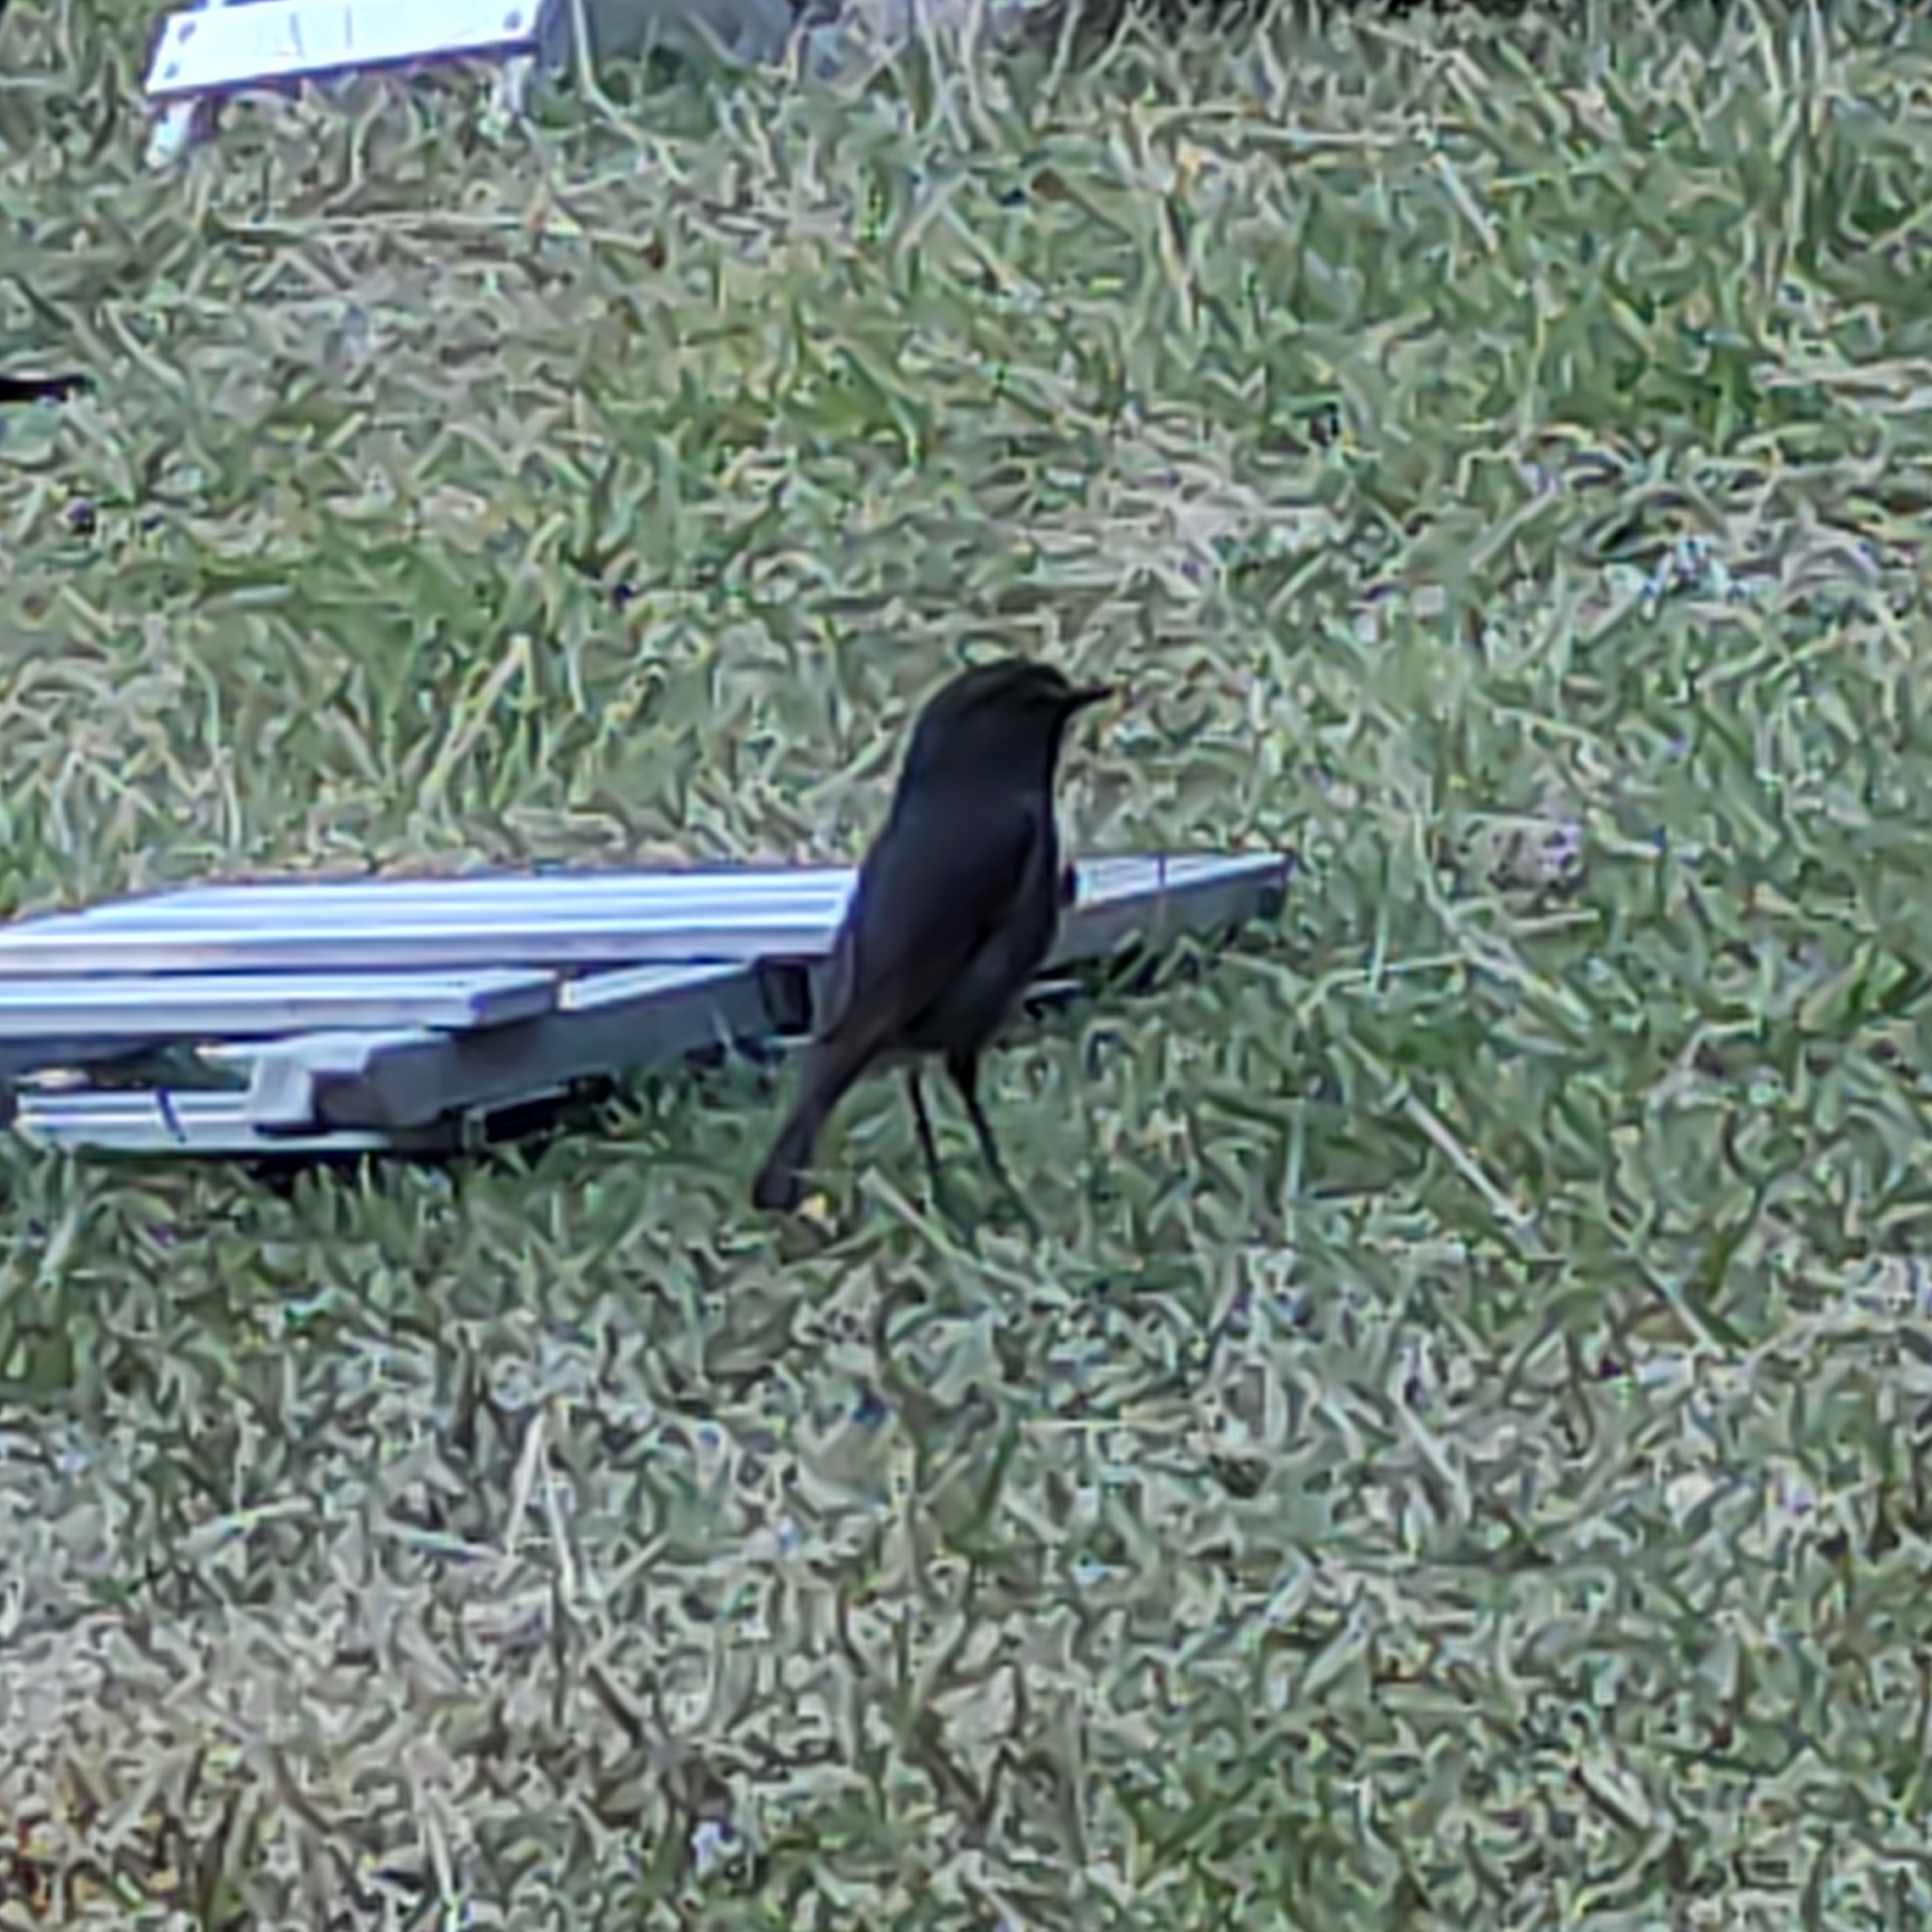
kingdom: Animalia
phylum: Chordata
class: Aves
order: Passeriformes
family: Petroicidae
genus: Petroica
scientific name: Petroica australis
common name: New zealand robin
